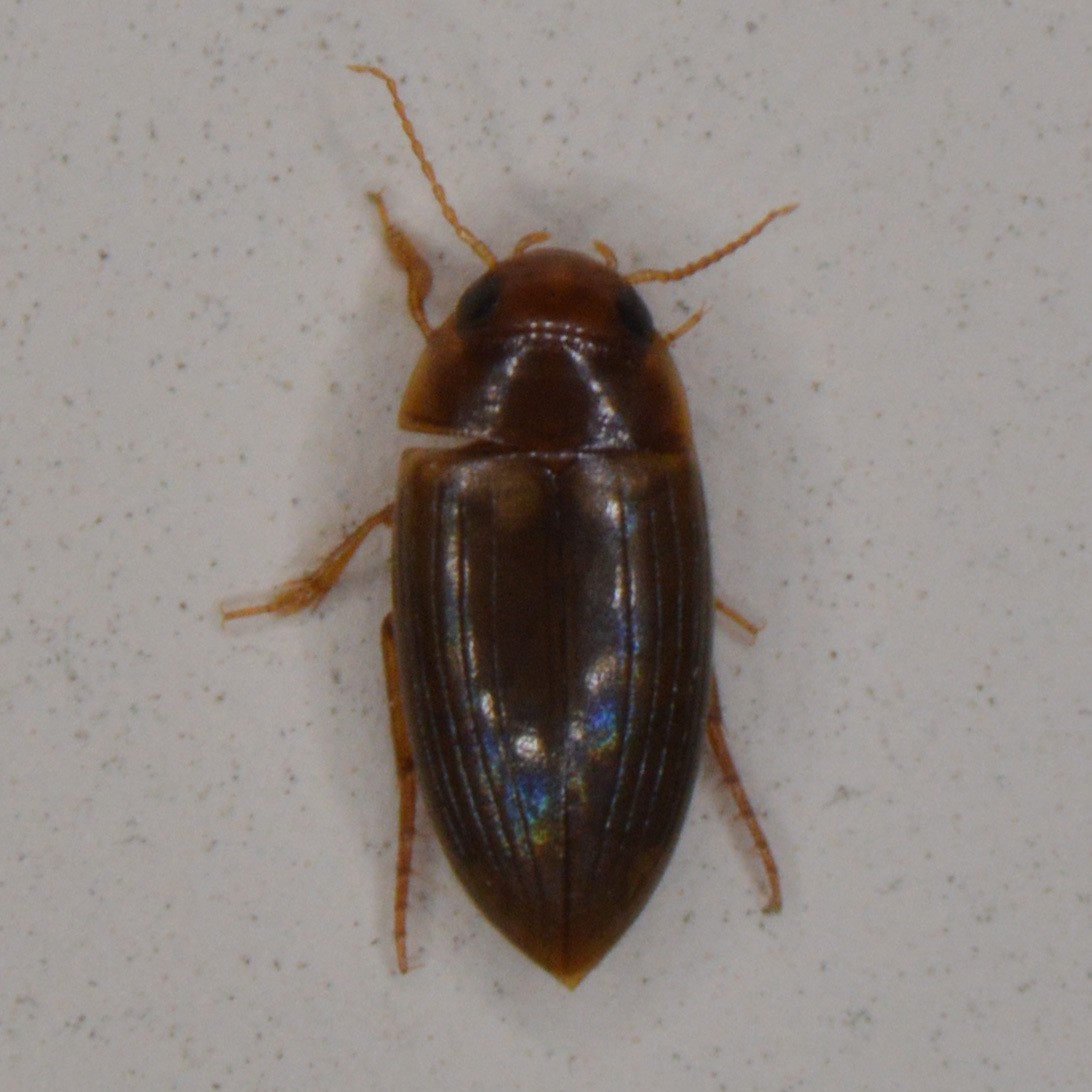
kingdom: Animalia
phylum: Arthropoda
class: Insecta
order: Coleoptera
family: Dytiscidae
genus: Copelatus
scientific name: Copelatus debilis
